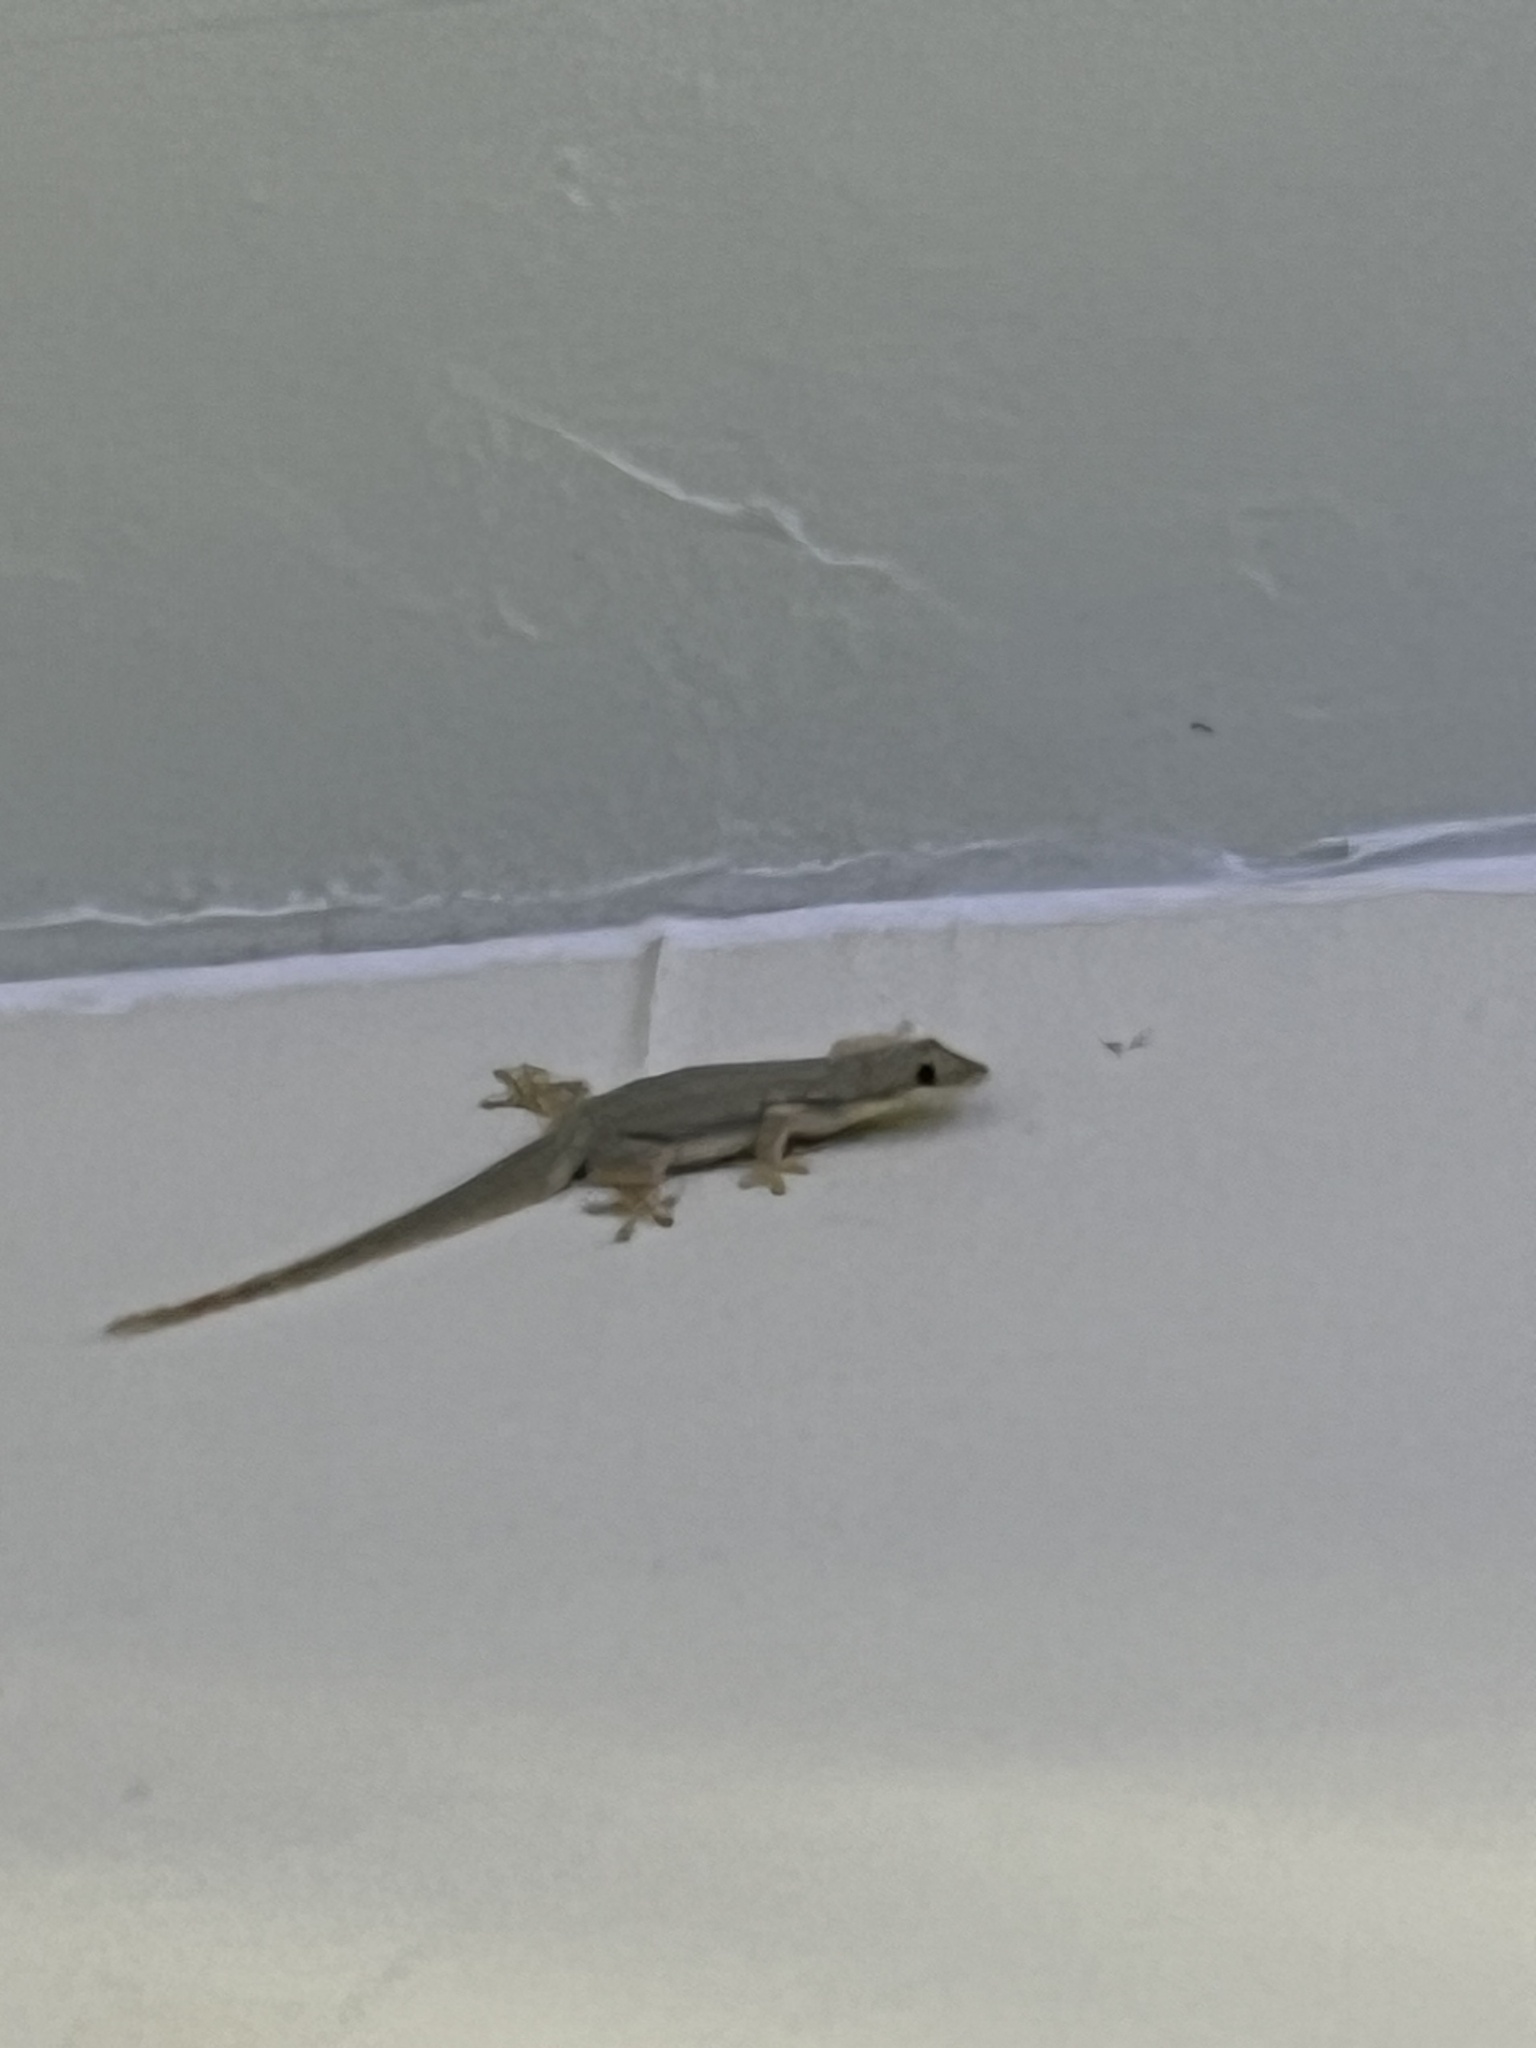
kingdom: Animalia
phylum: Chordata
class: Squamata
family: Gekkonidae
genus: Hemidactylus
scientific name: Hemidactylus platyurus
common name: Flat-tailed house gecko
